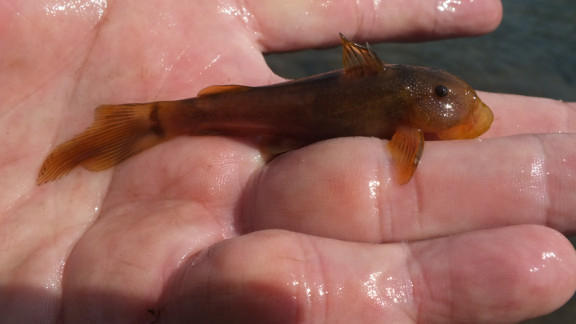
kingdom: Animalia
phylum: Chordata
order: Siluriformes
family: Mochokidae
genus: Chiloglanis
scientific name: Chiloglanis anoterus
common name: Pennant-tailed catlet
